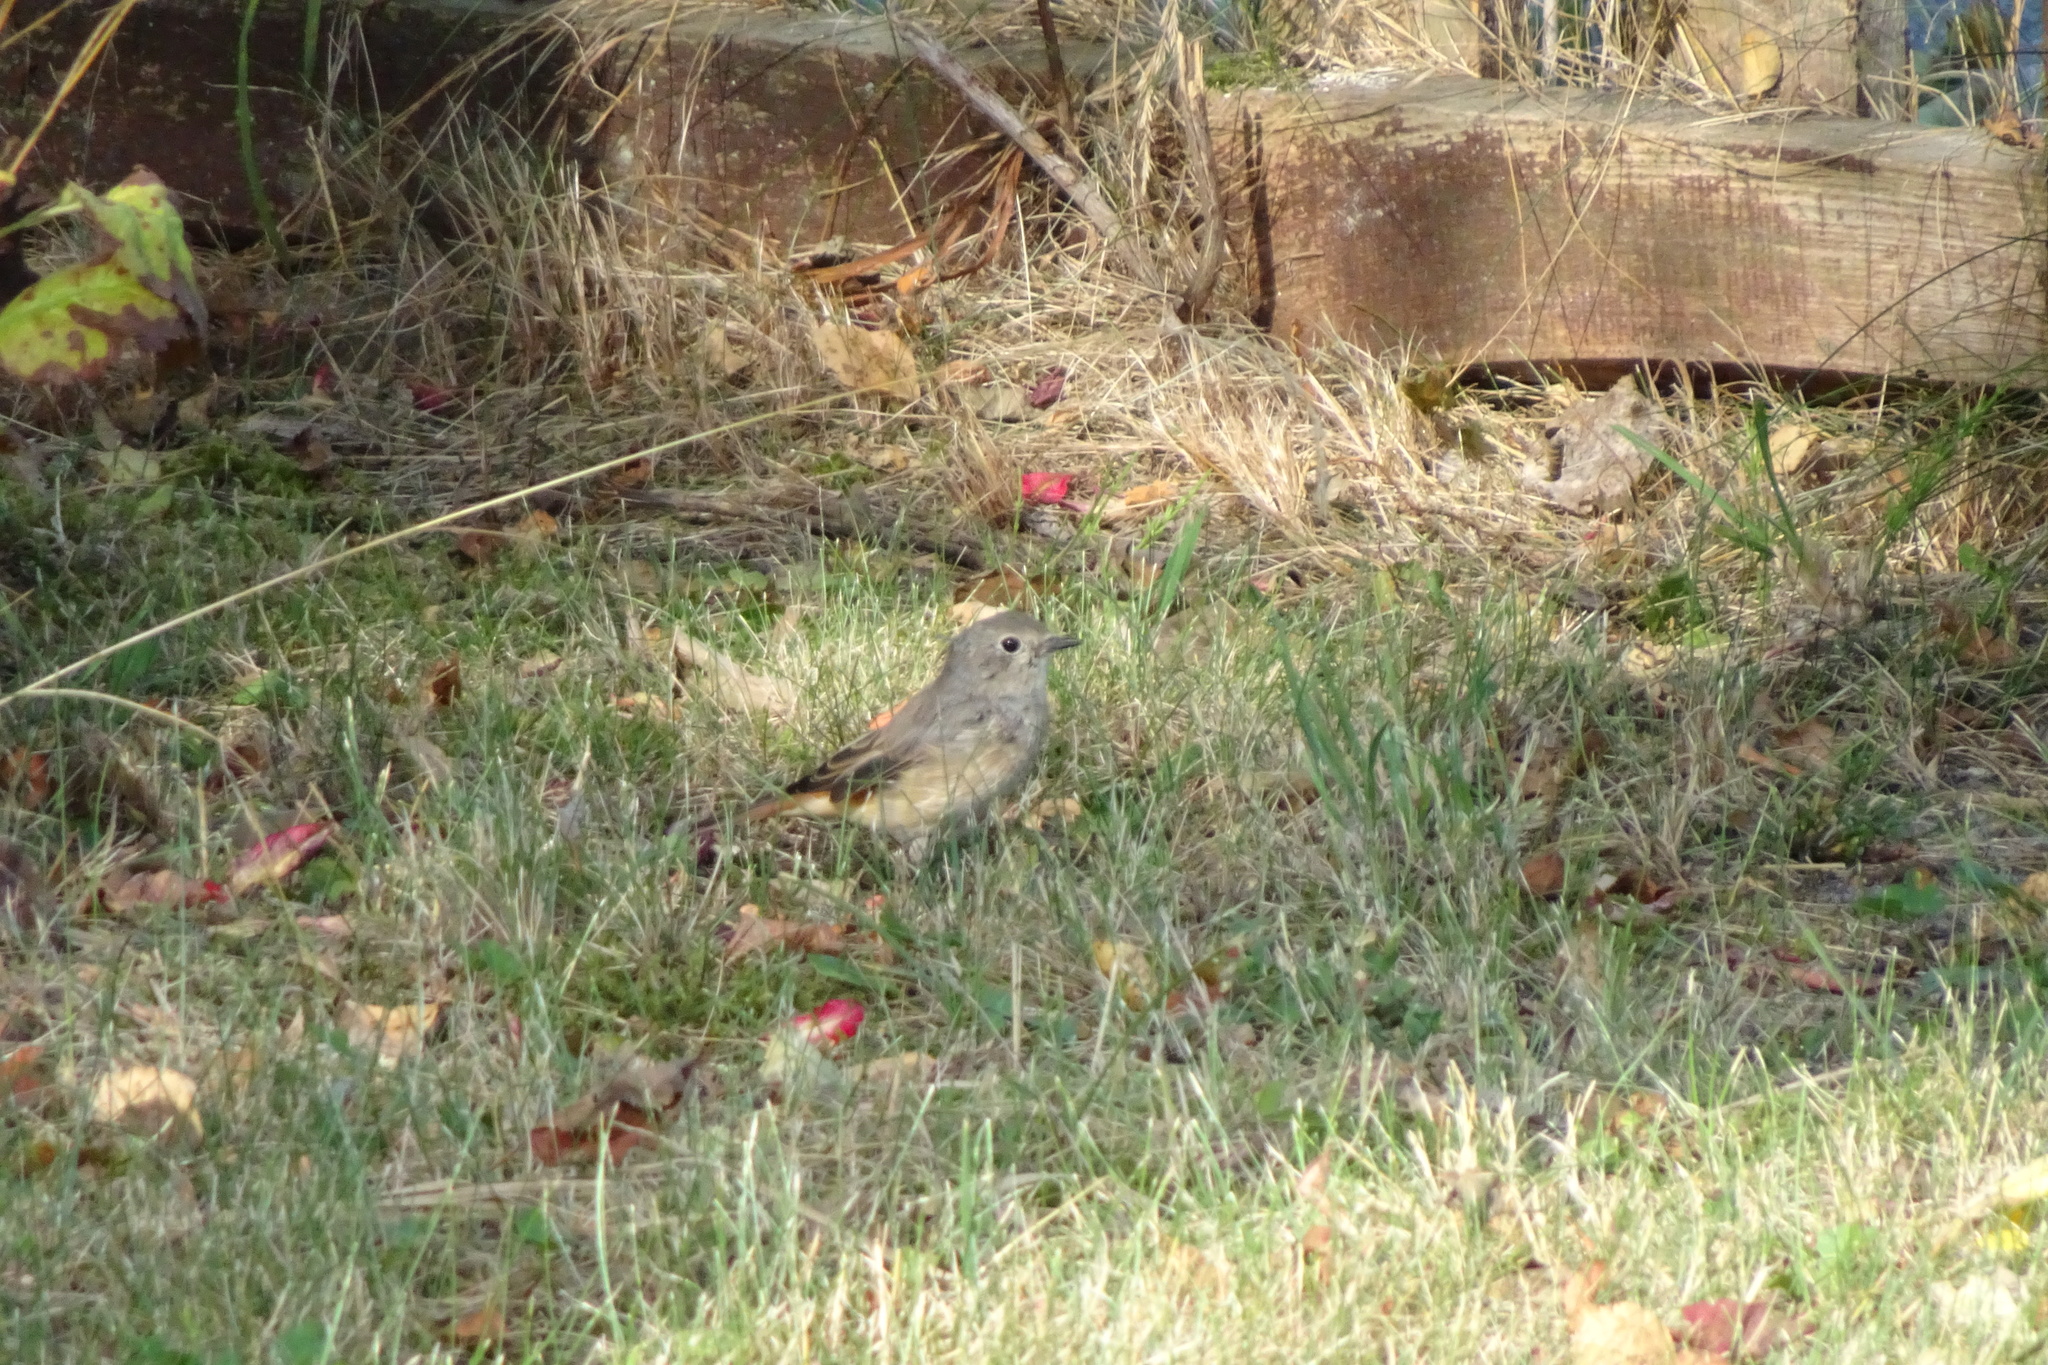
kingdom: Animalia
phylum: Chordata
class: Aves
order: Passeriformes
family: Muscicapidae
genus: Phoenicurus
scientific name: Phoenicurus phoenicurus
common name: Common redstart
